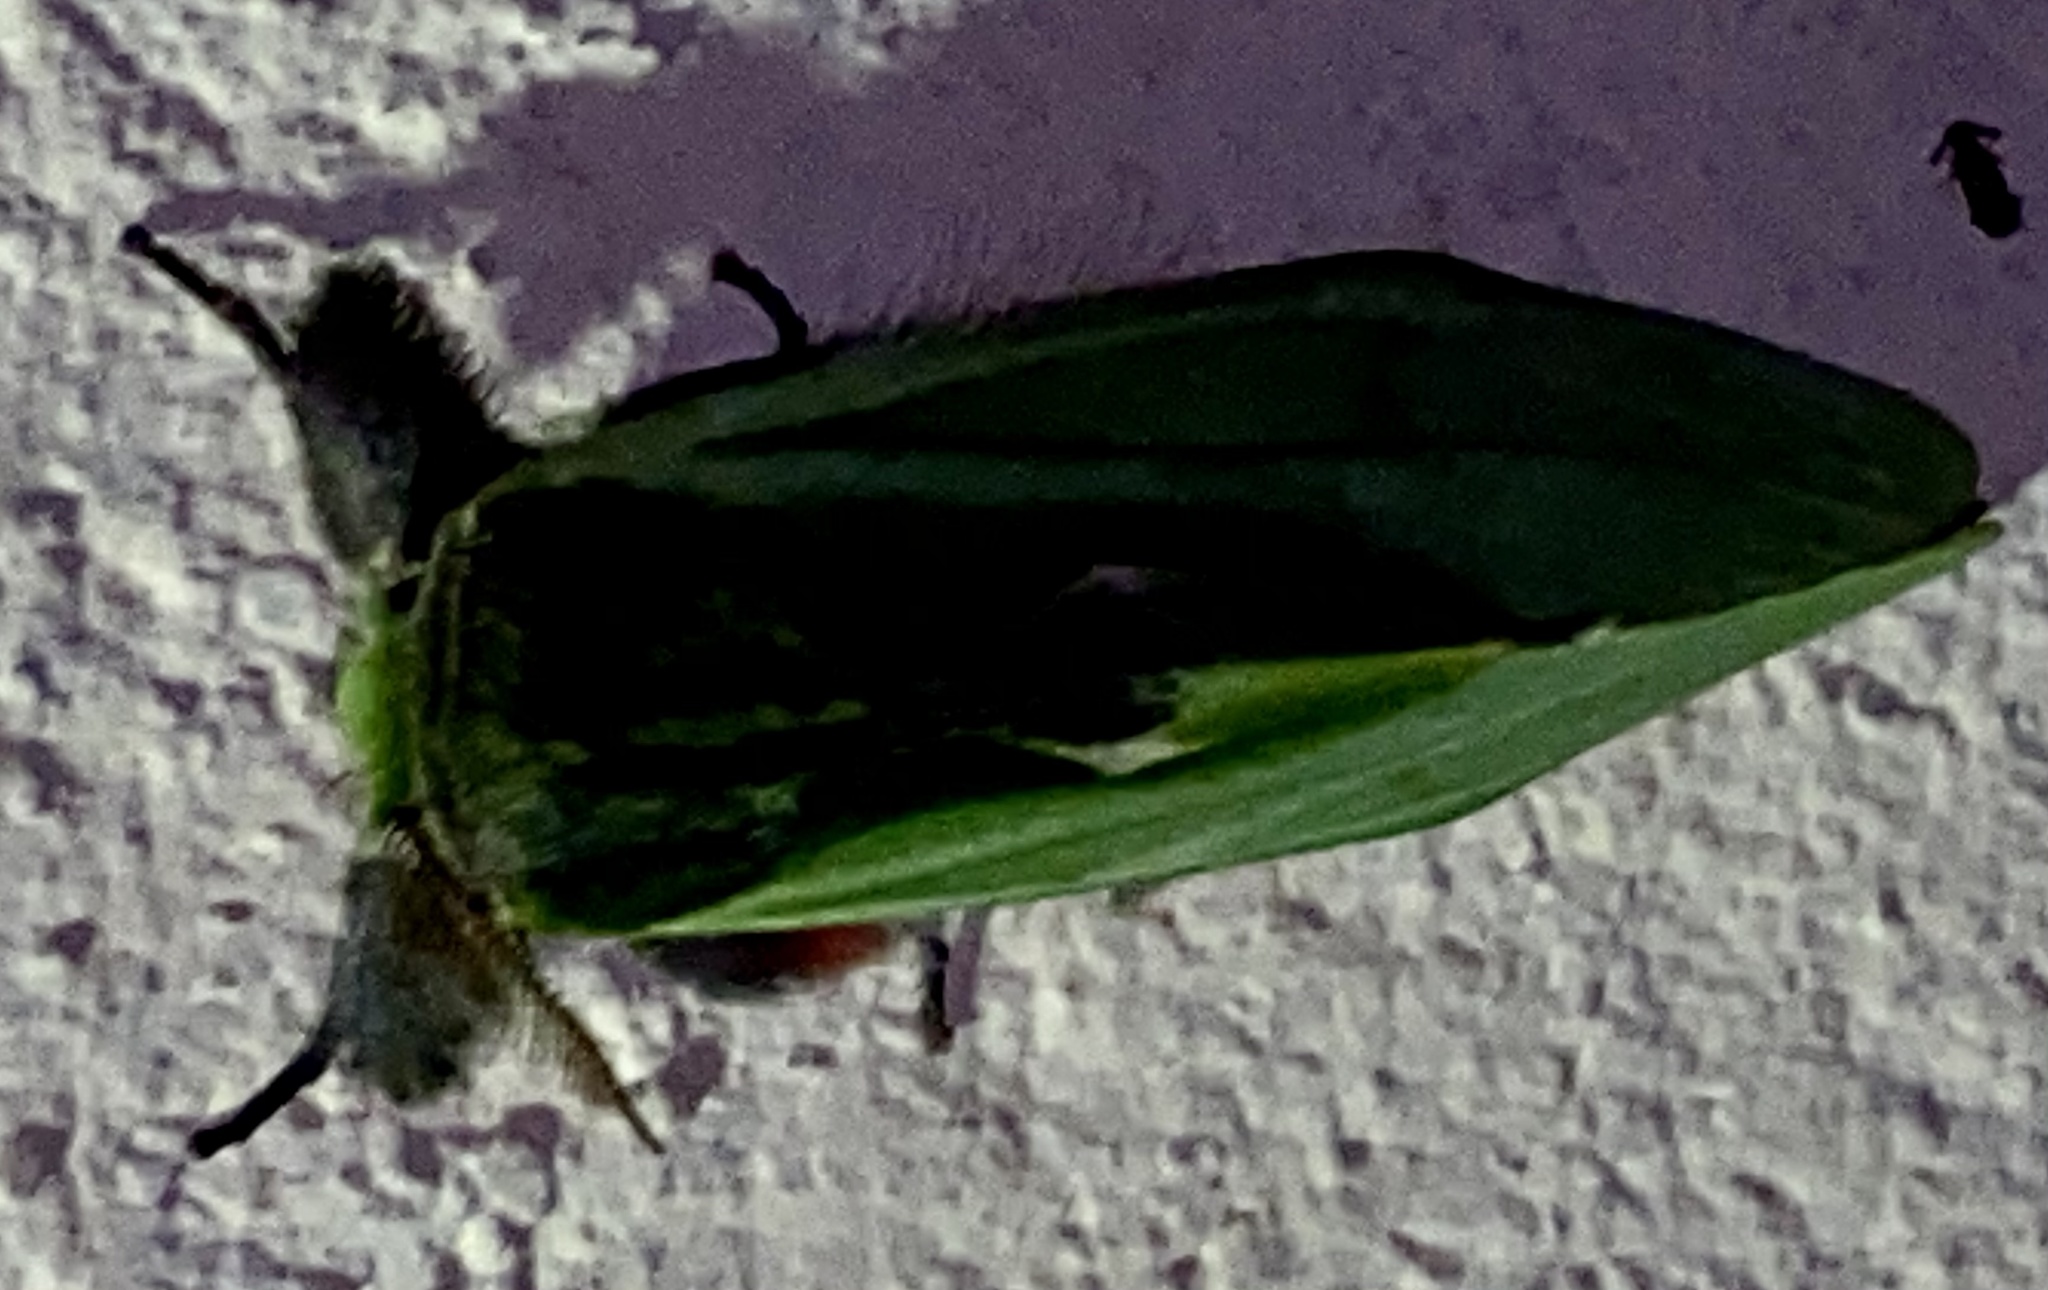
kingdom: Animalia
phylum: Arthropoda
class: Insecta
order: Lepidoptera
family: Notodontidae
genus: Zelica
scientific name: Zelica thalassina
